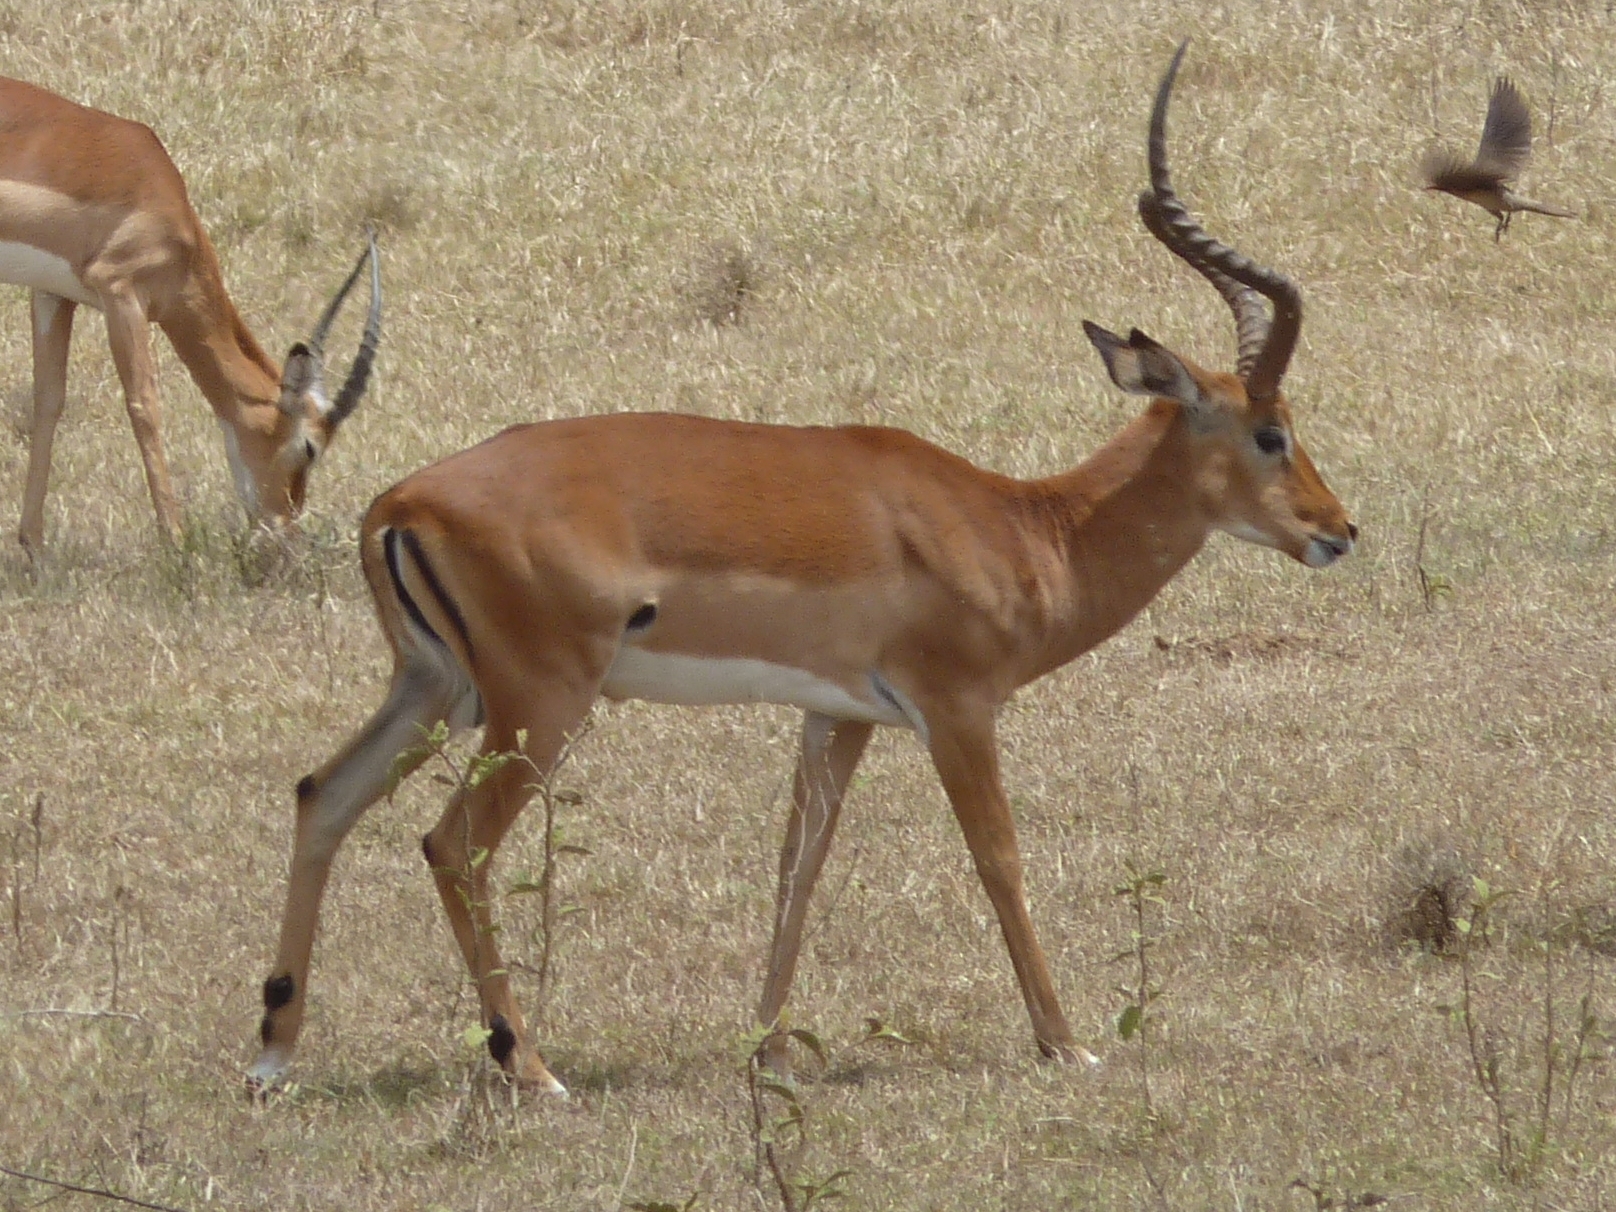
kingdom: Animalia
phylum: Chordata
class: Mammalia
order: Artiodactyla
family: Bovidae
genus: Aepyceros
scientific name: Aepyceros melampus
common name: Impala
